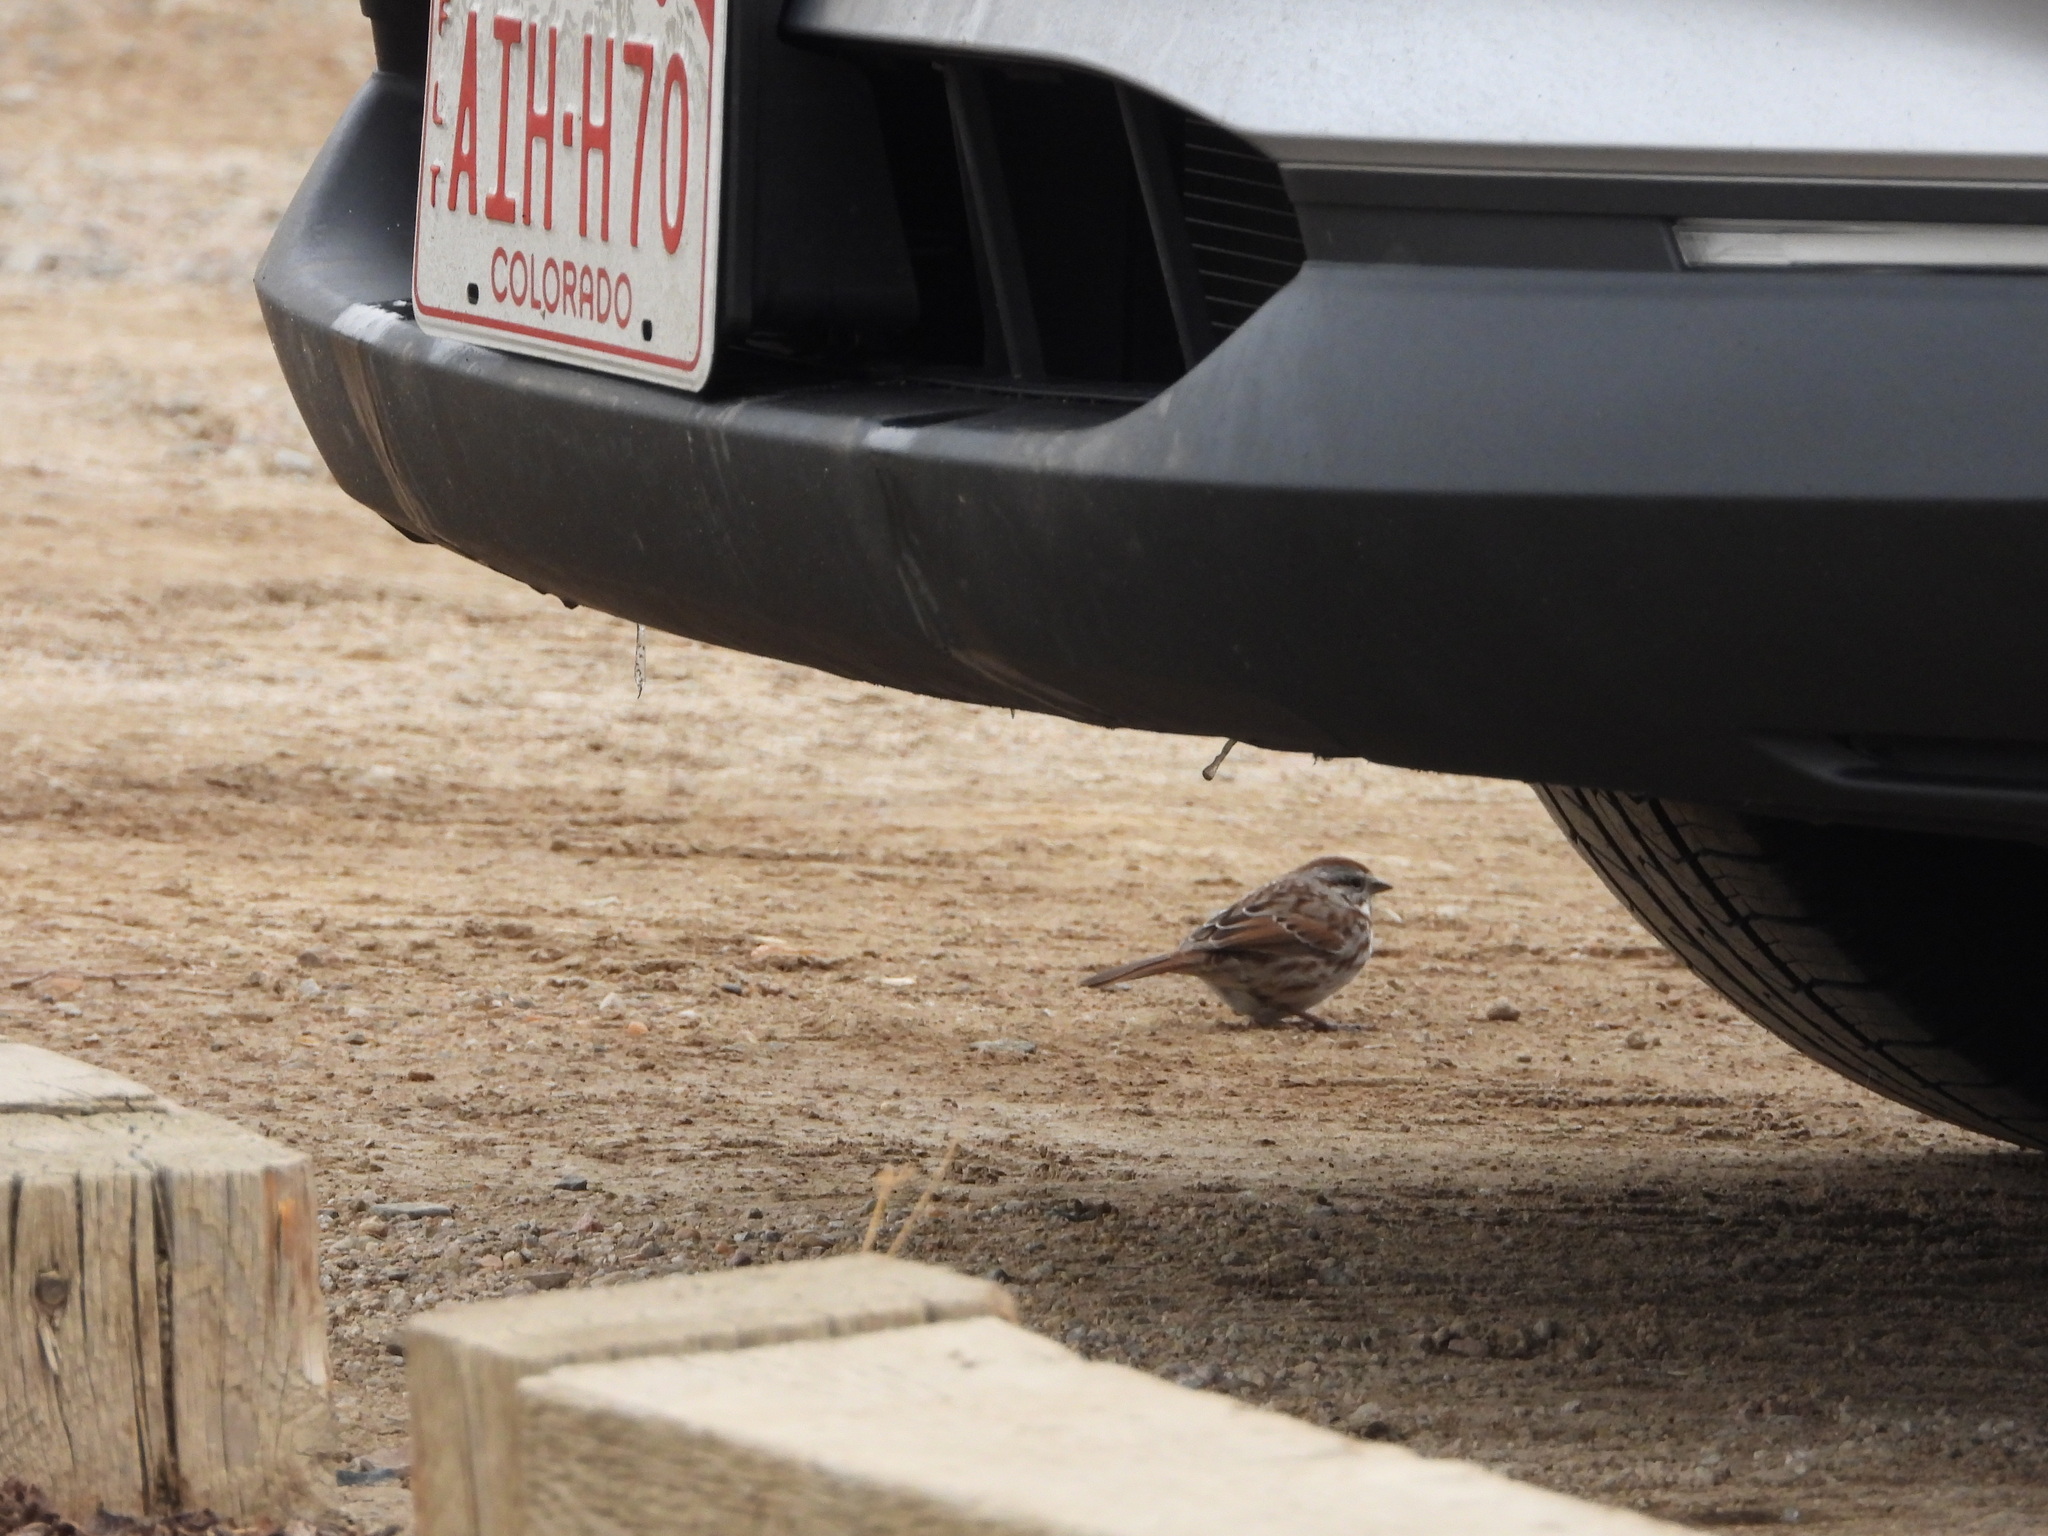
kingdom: Animalia
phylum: Chordata
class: Aves
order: Passeriformes
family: Passerellidae
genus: Melospiza
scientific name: Melospiza melodia
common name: Song sparrow
